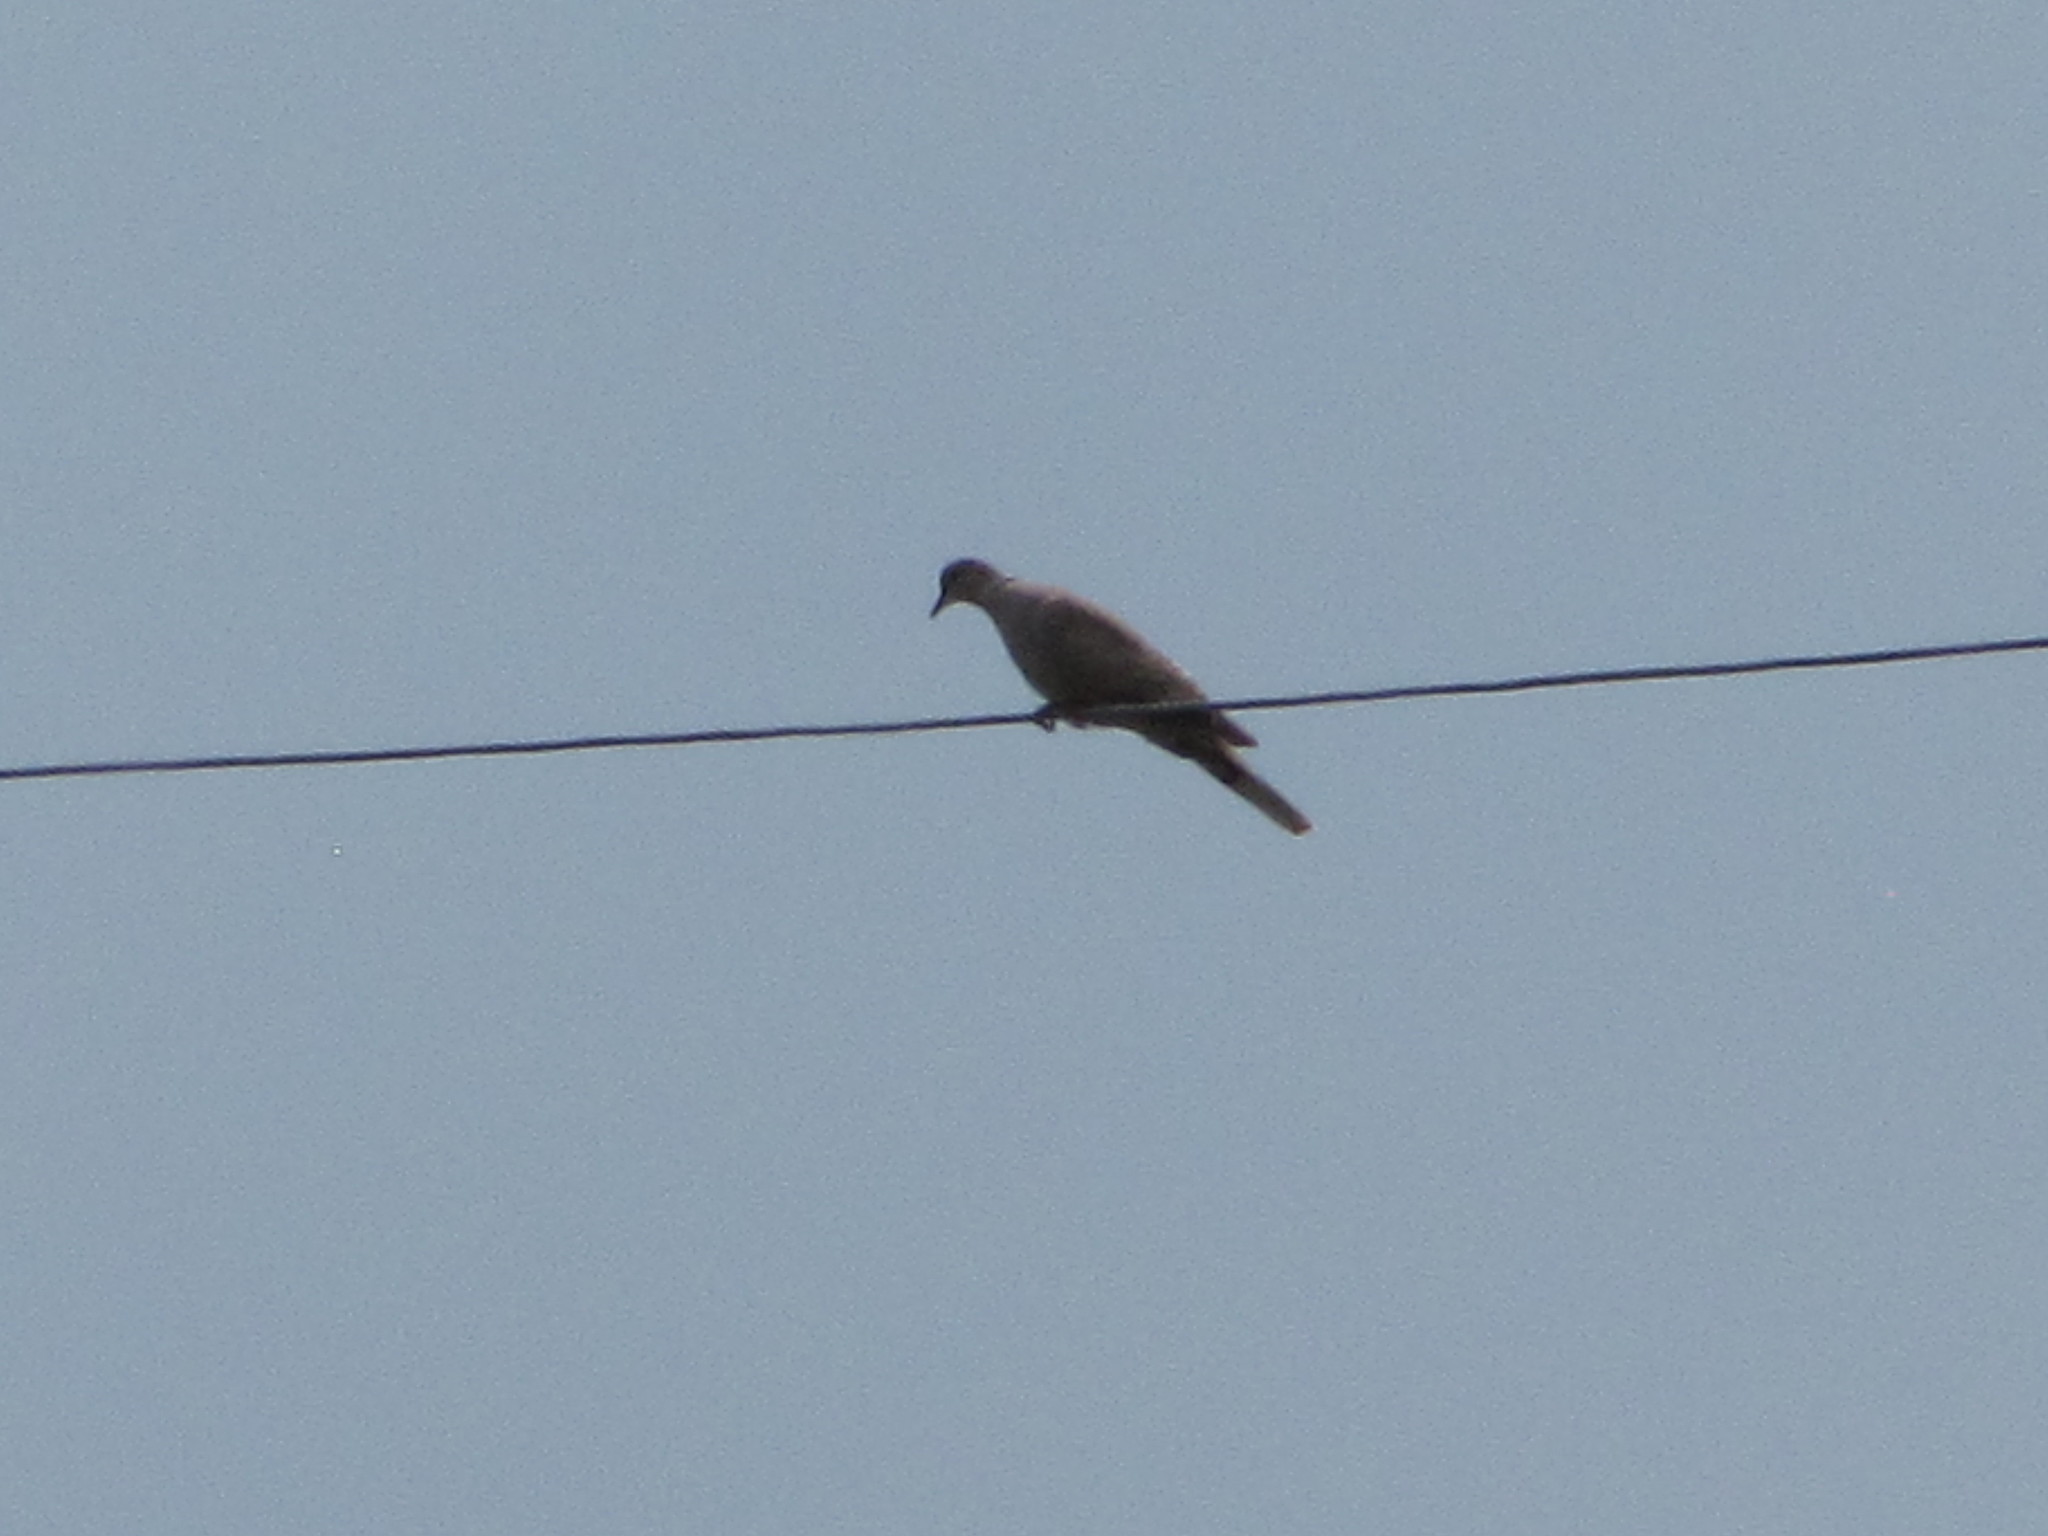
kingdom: Animalia
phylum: Chordata
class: Aves
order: Columbiformes
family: Columbidae
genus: Streptopelia
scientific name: Streptopelia decaocto
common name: Eurasian collared dove
